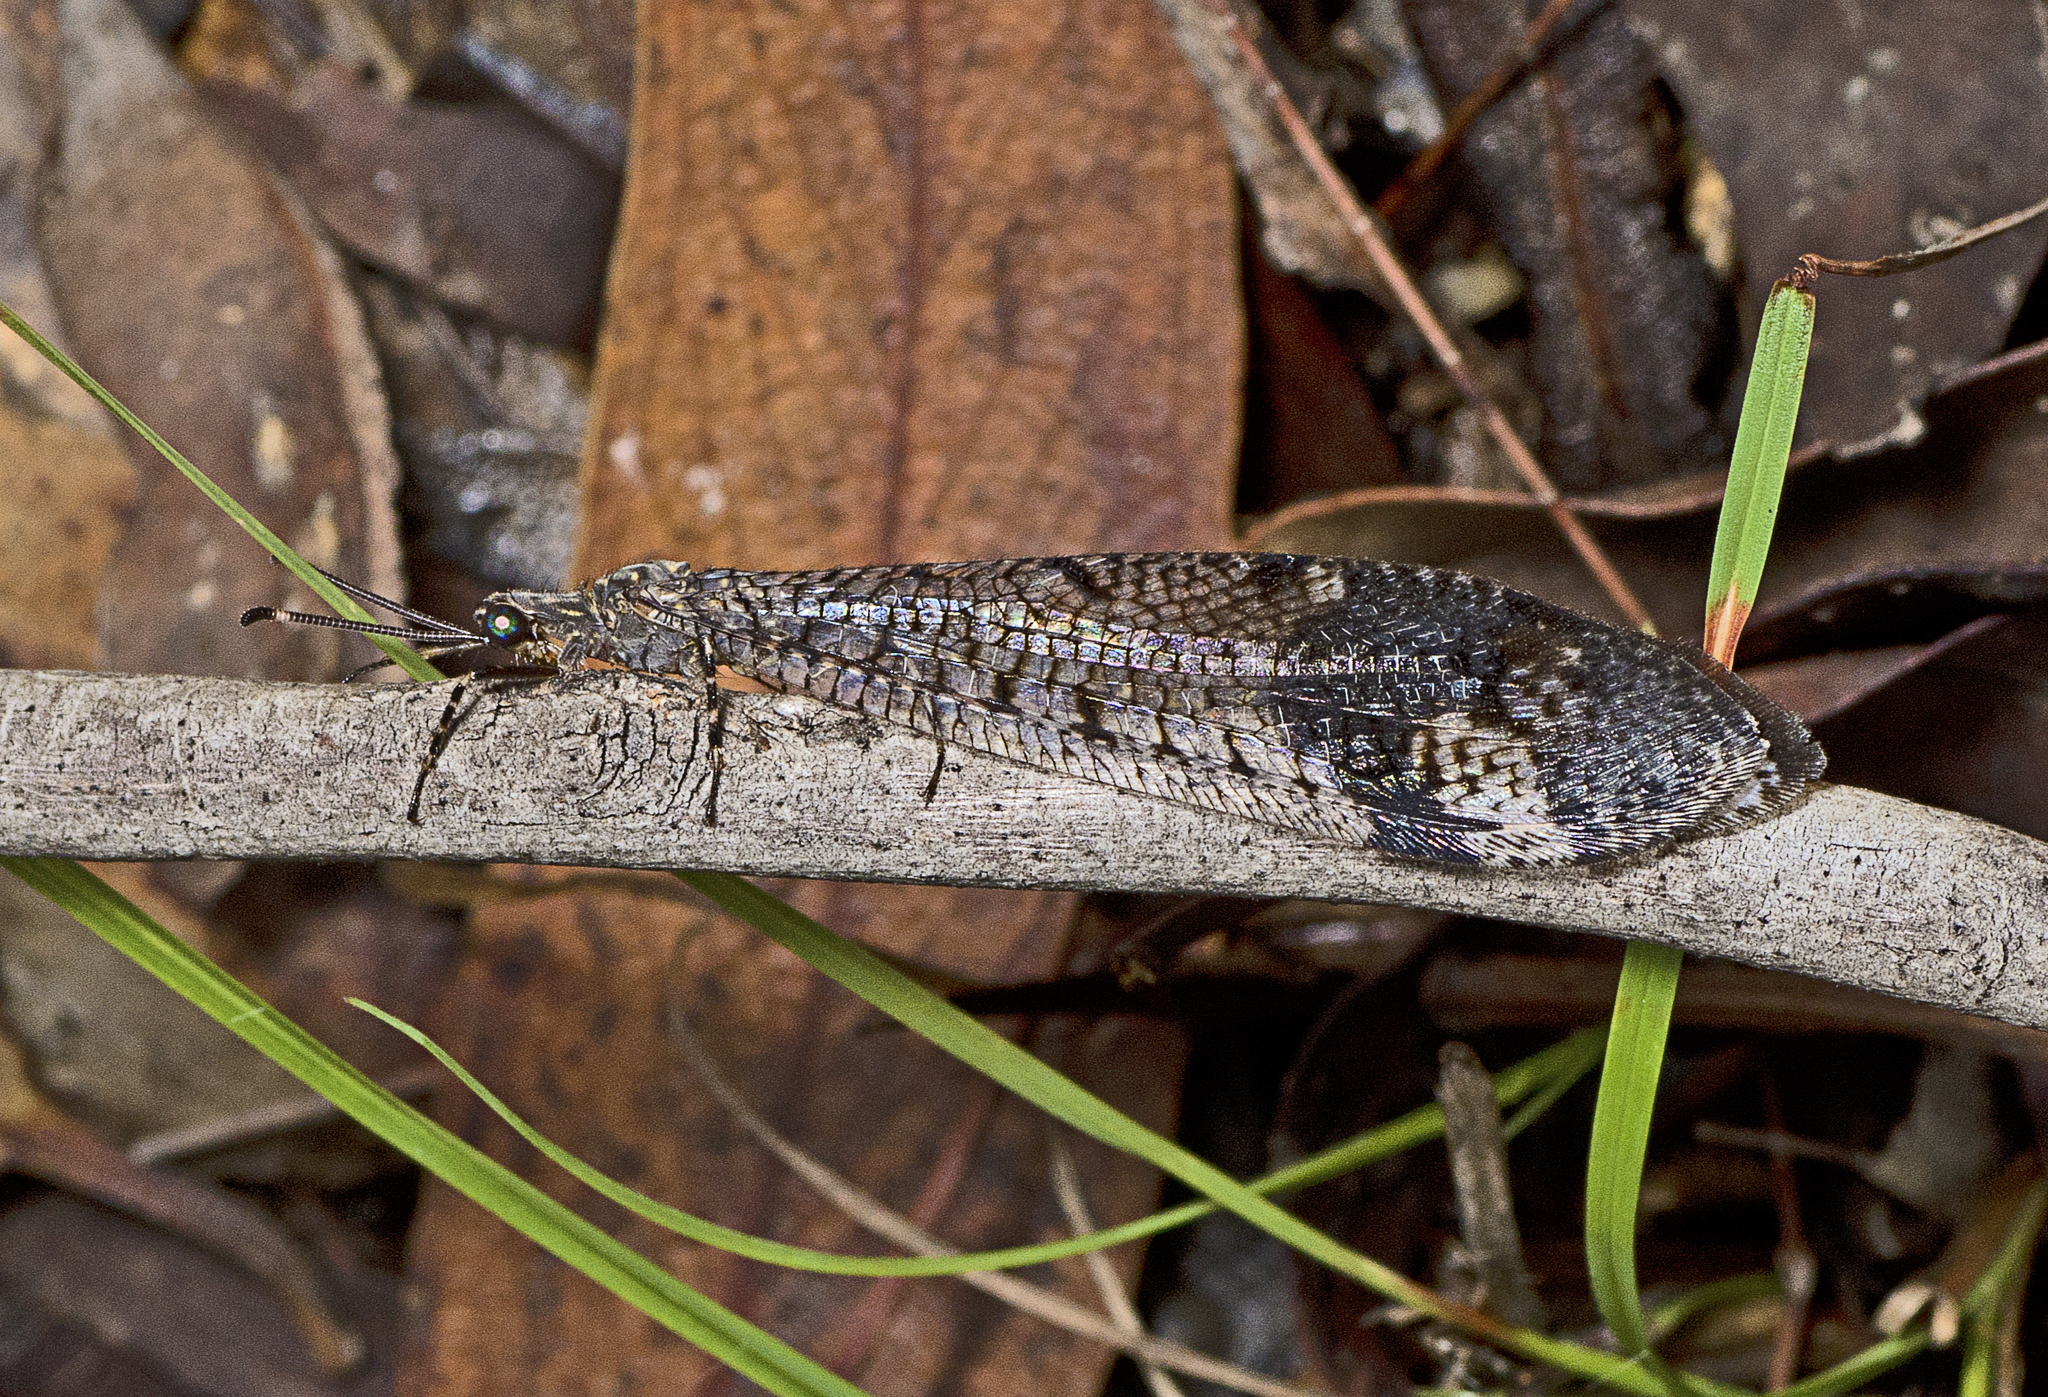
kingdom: Animalia
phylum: Arthropoda
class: Insecta
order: Neuroptera
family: Myrmeleontidae
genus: Glenoleon
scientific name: Glenoleon pulchellus
